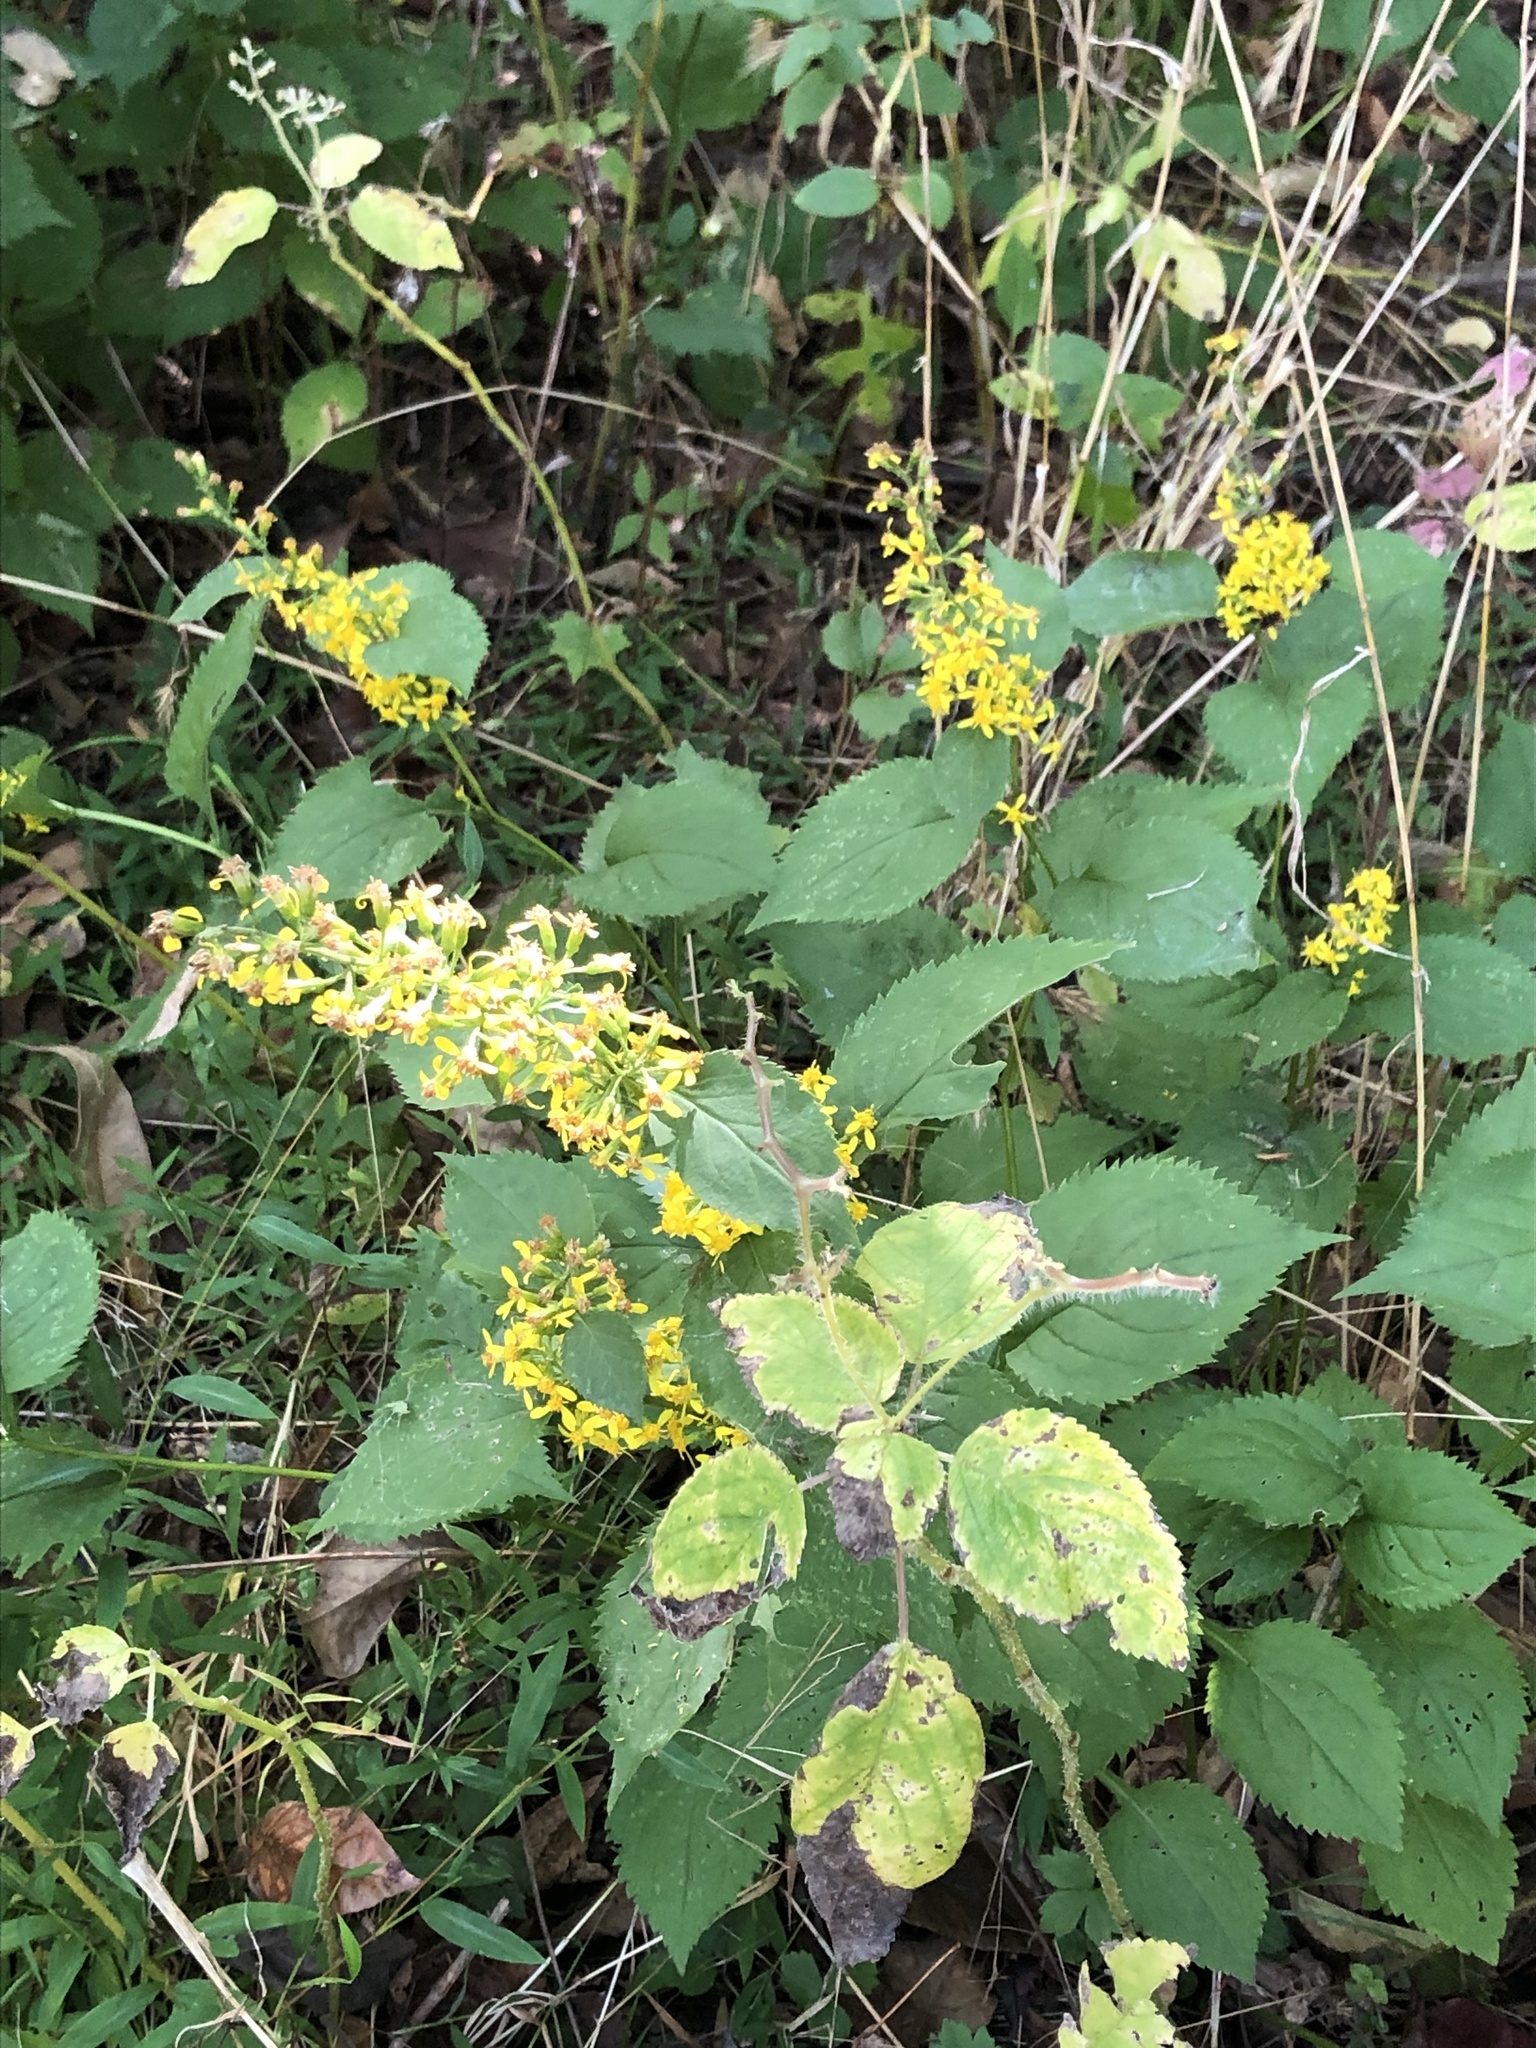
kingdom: Plantae
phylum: Tracheophyta
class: Magnoliopsida
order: Asterales
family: Asteraceae
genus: Solidago
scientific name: Solidago flexicaulis
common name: Zig-zag goldenrod
